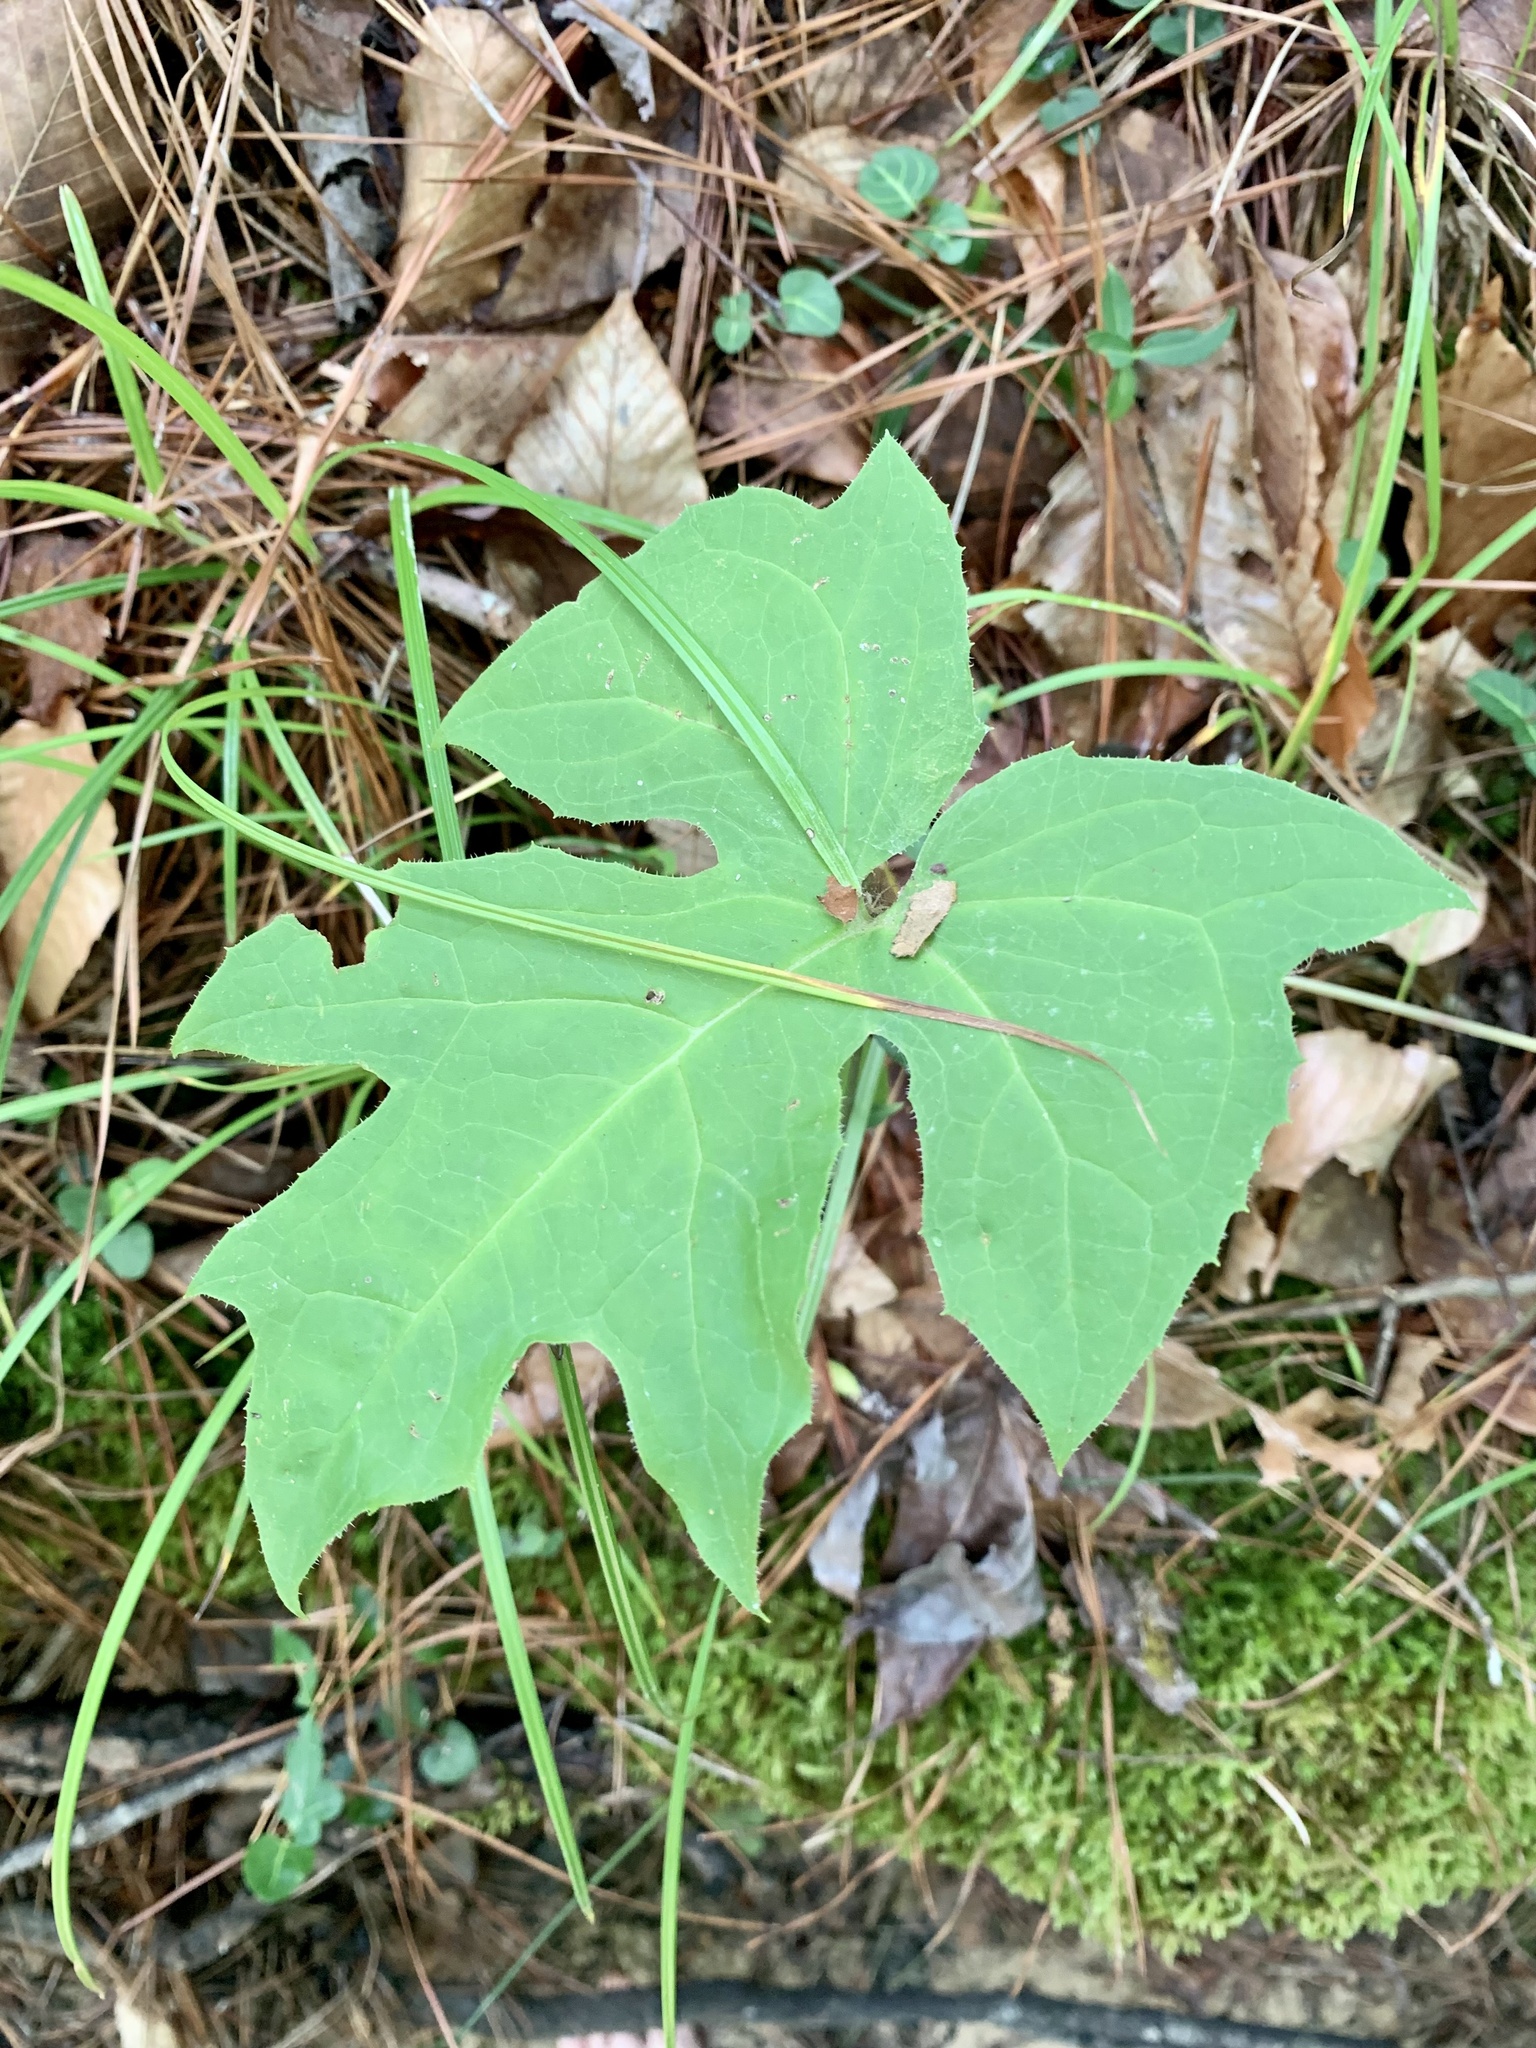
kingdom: Plantae
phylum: Tracheophyta
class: Magnoliopsida
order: Asterales
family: Asteraceae
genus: Nabalus
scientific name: Nabalus altissima
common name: Tall rattlesnakeroot
